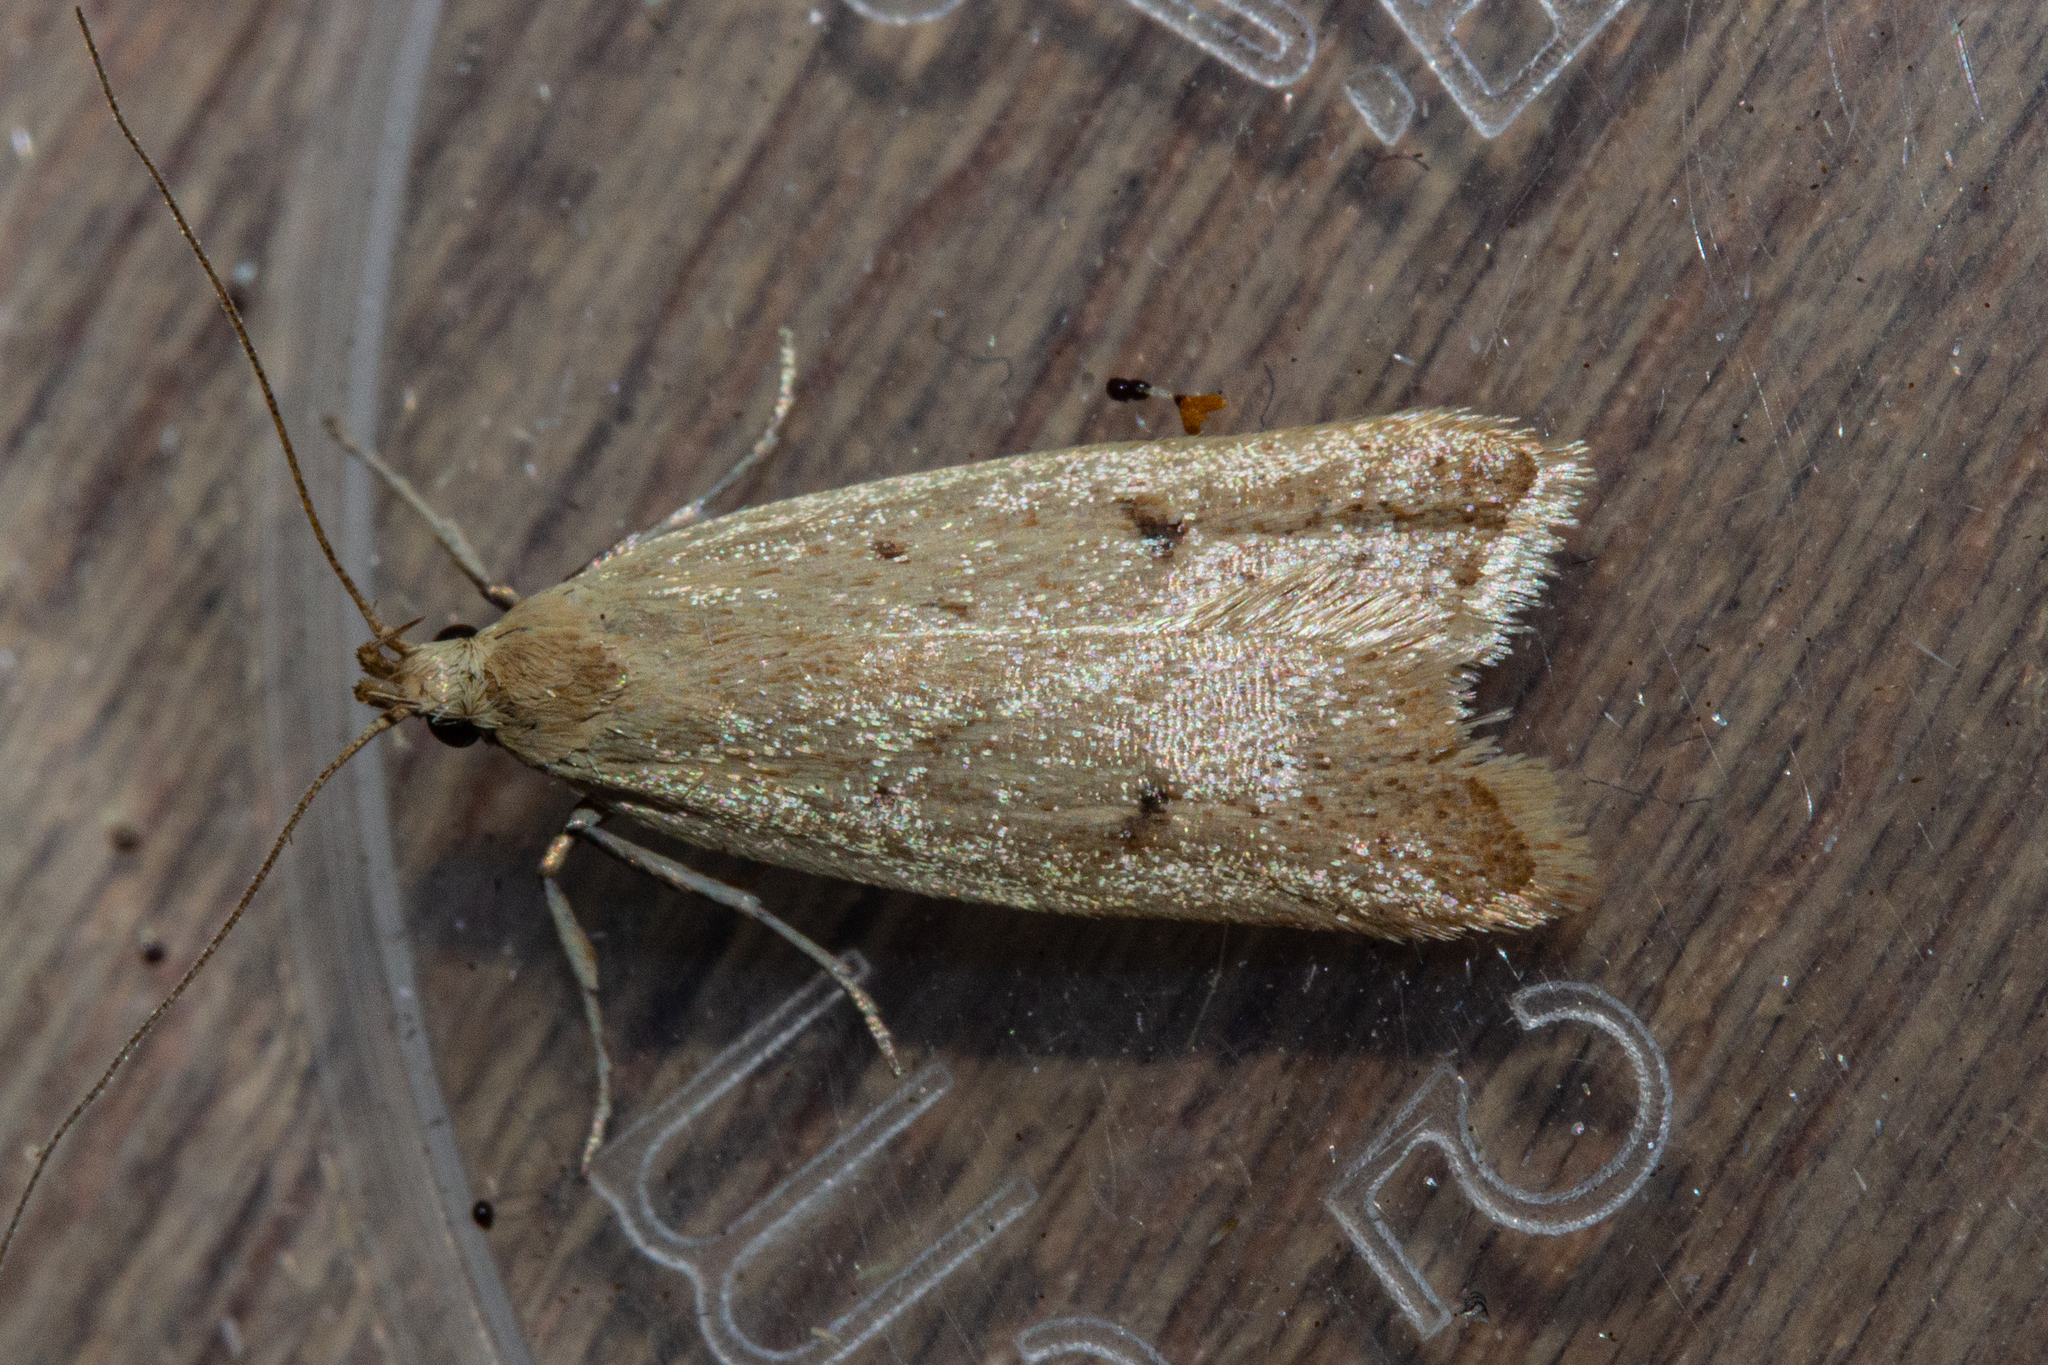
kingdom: Animalia
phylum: Arthropoda
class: Insecta
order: Lepidoptera
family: Oecophoridae
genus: Gymnobathra
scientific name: Gymnobathra sarcoxantha
